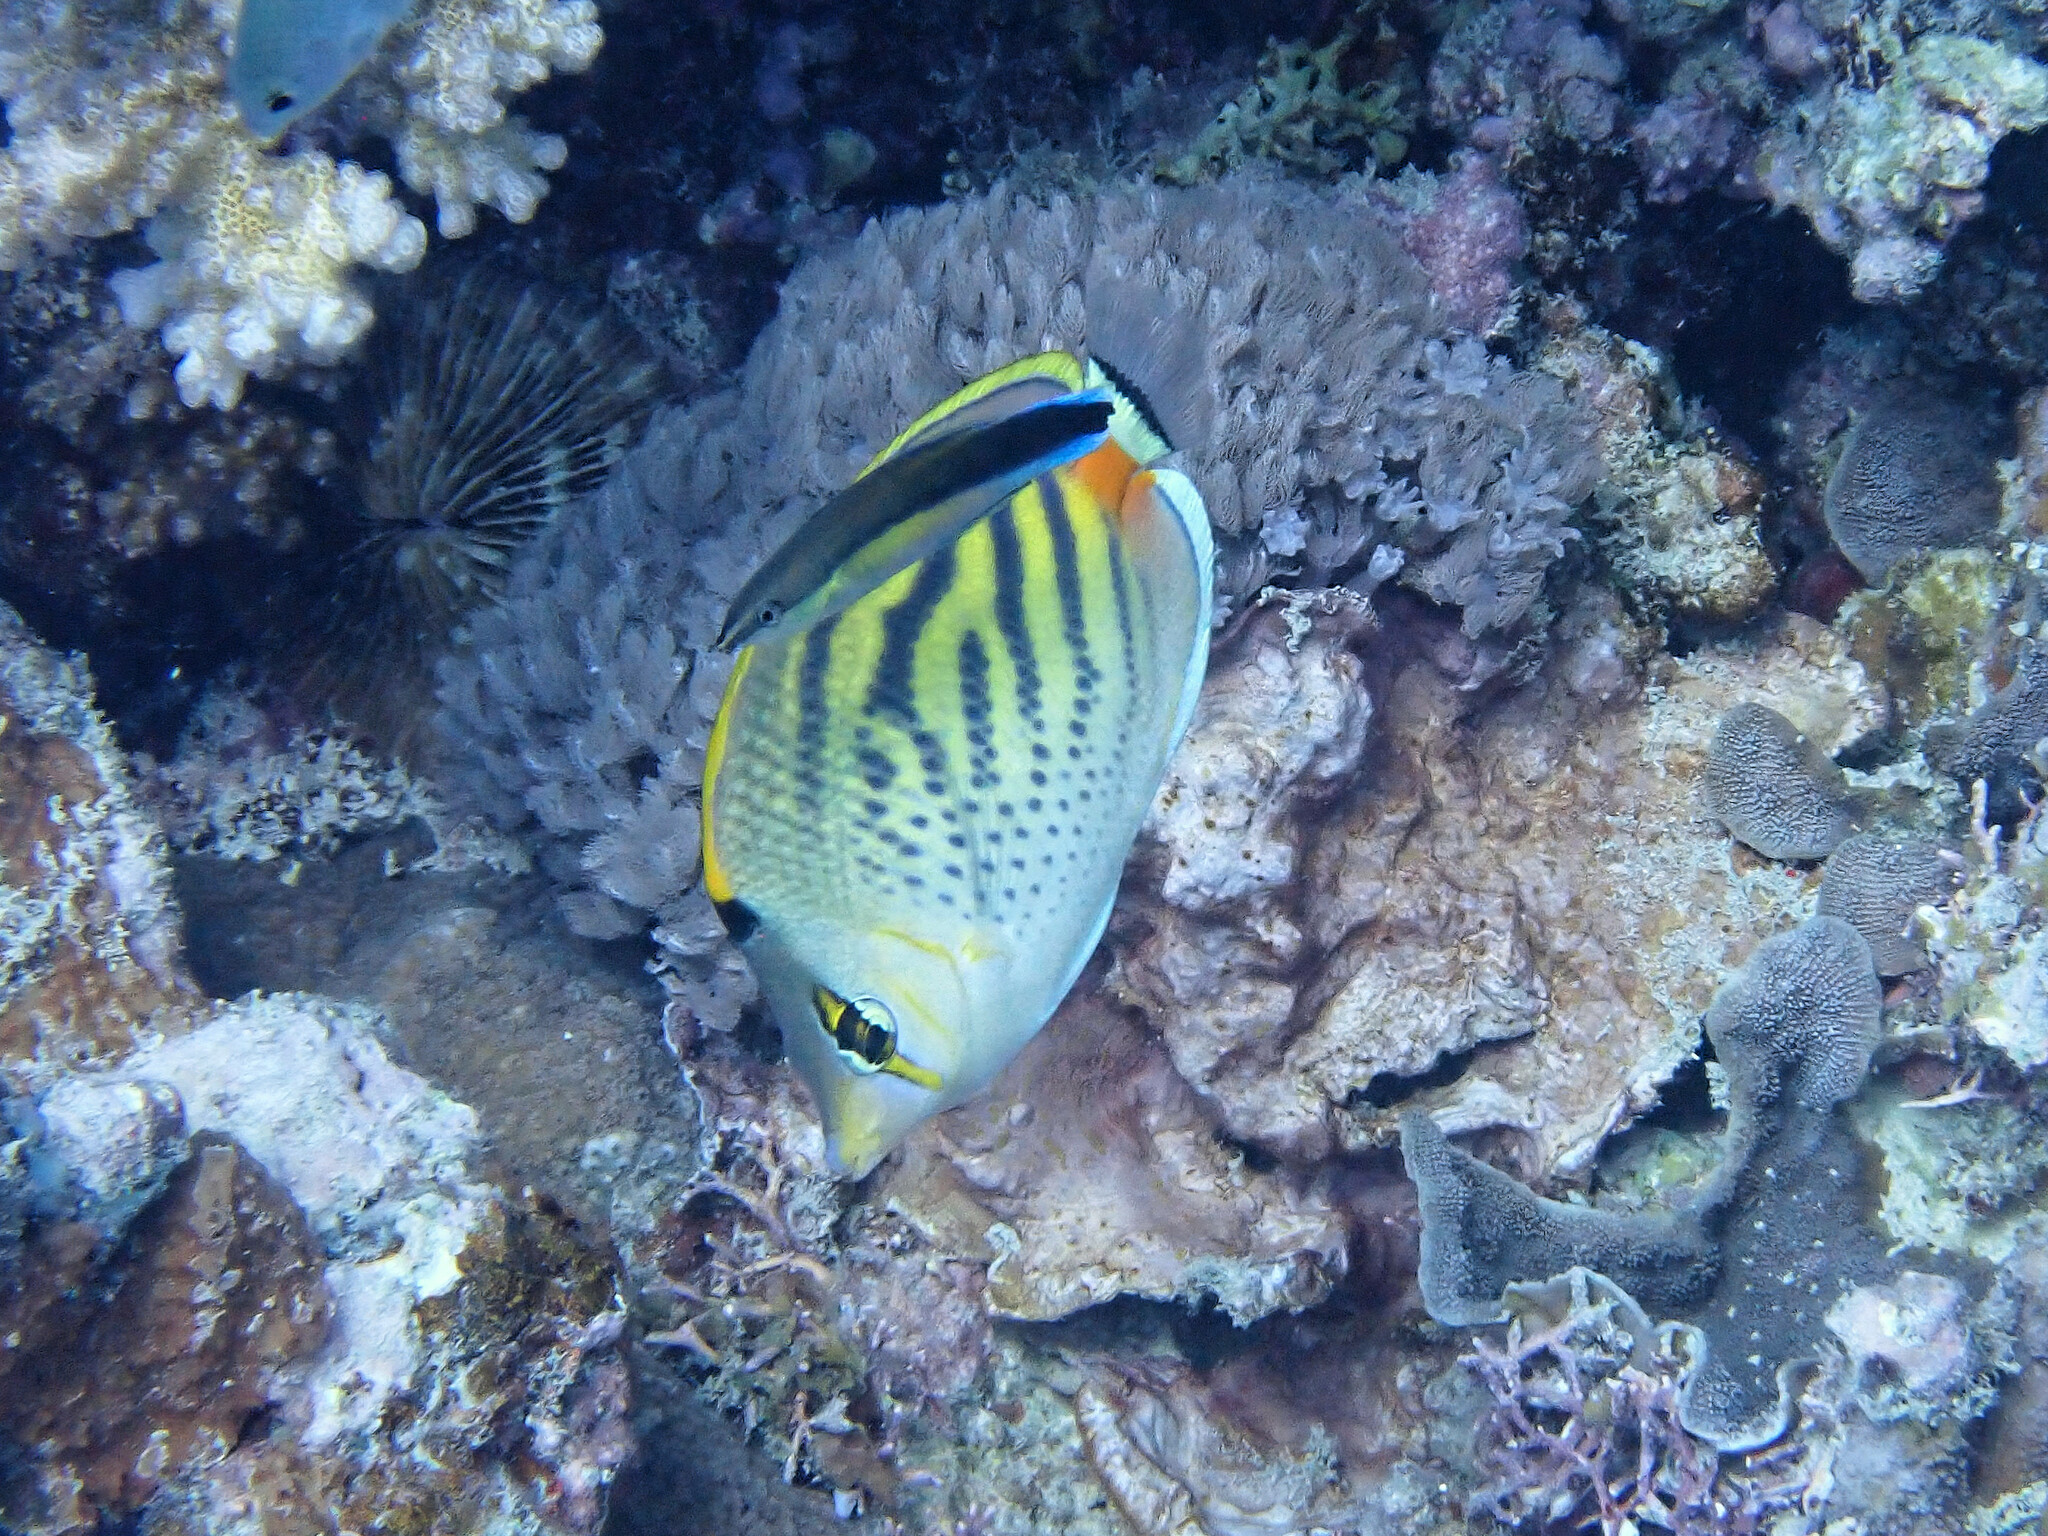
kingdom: Animalia
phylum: Chordata
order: Perciformes
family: Chaetodontidae
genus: Chaetodon
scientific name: Chaetodon pelewensis
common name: Dot-and-dash butterflyfish
